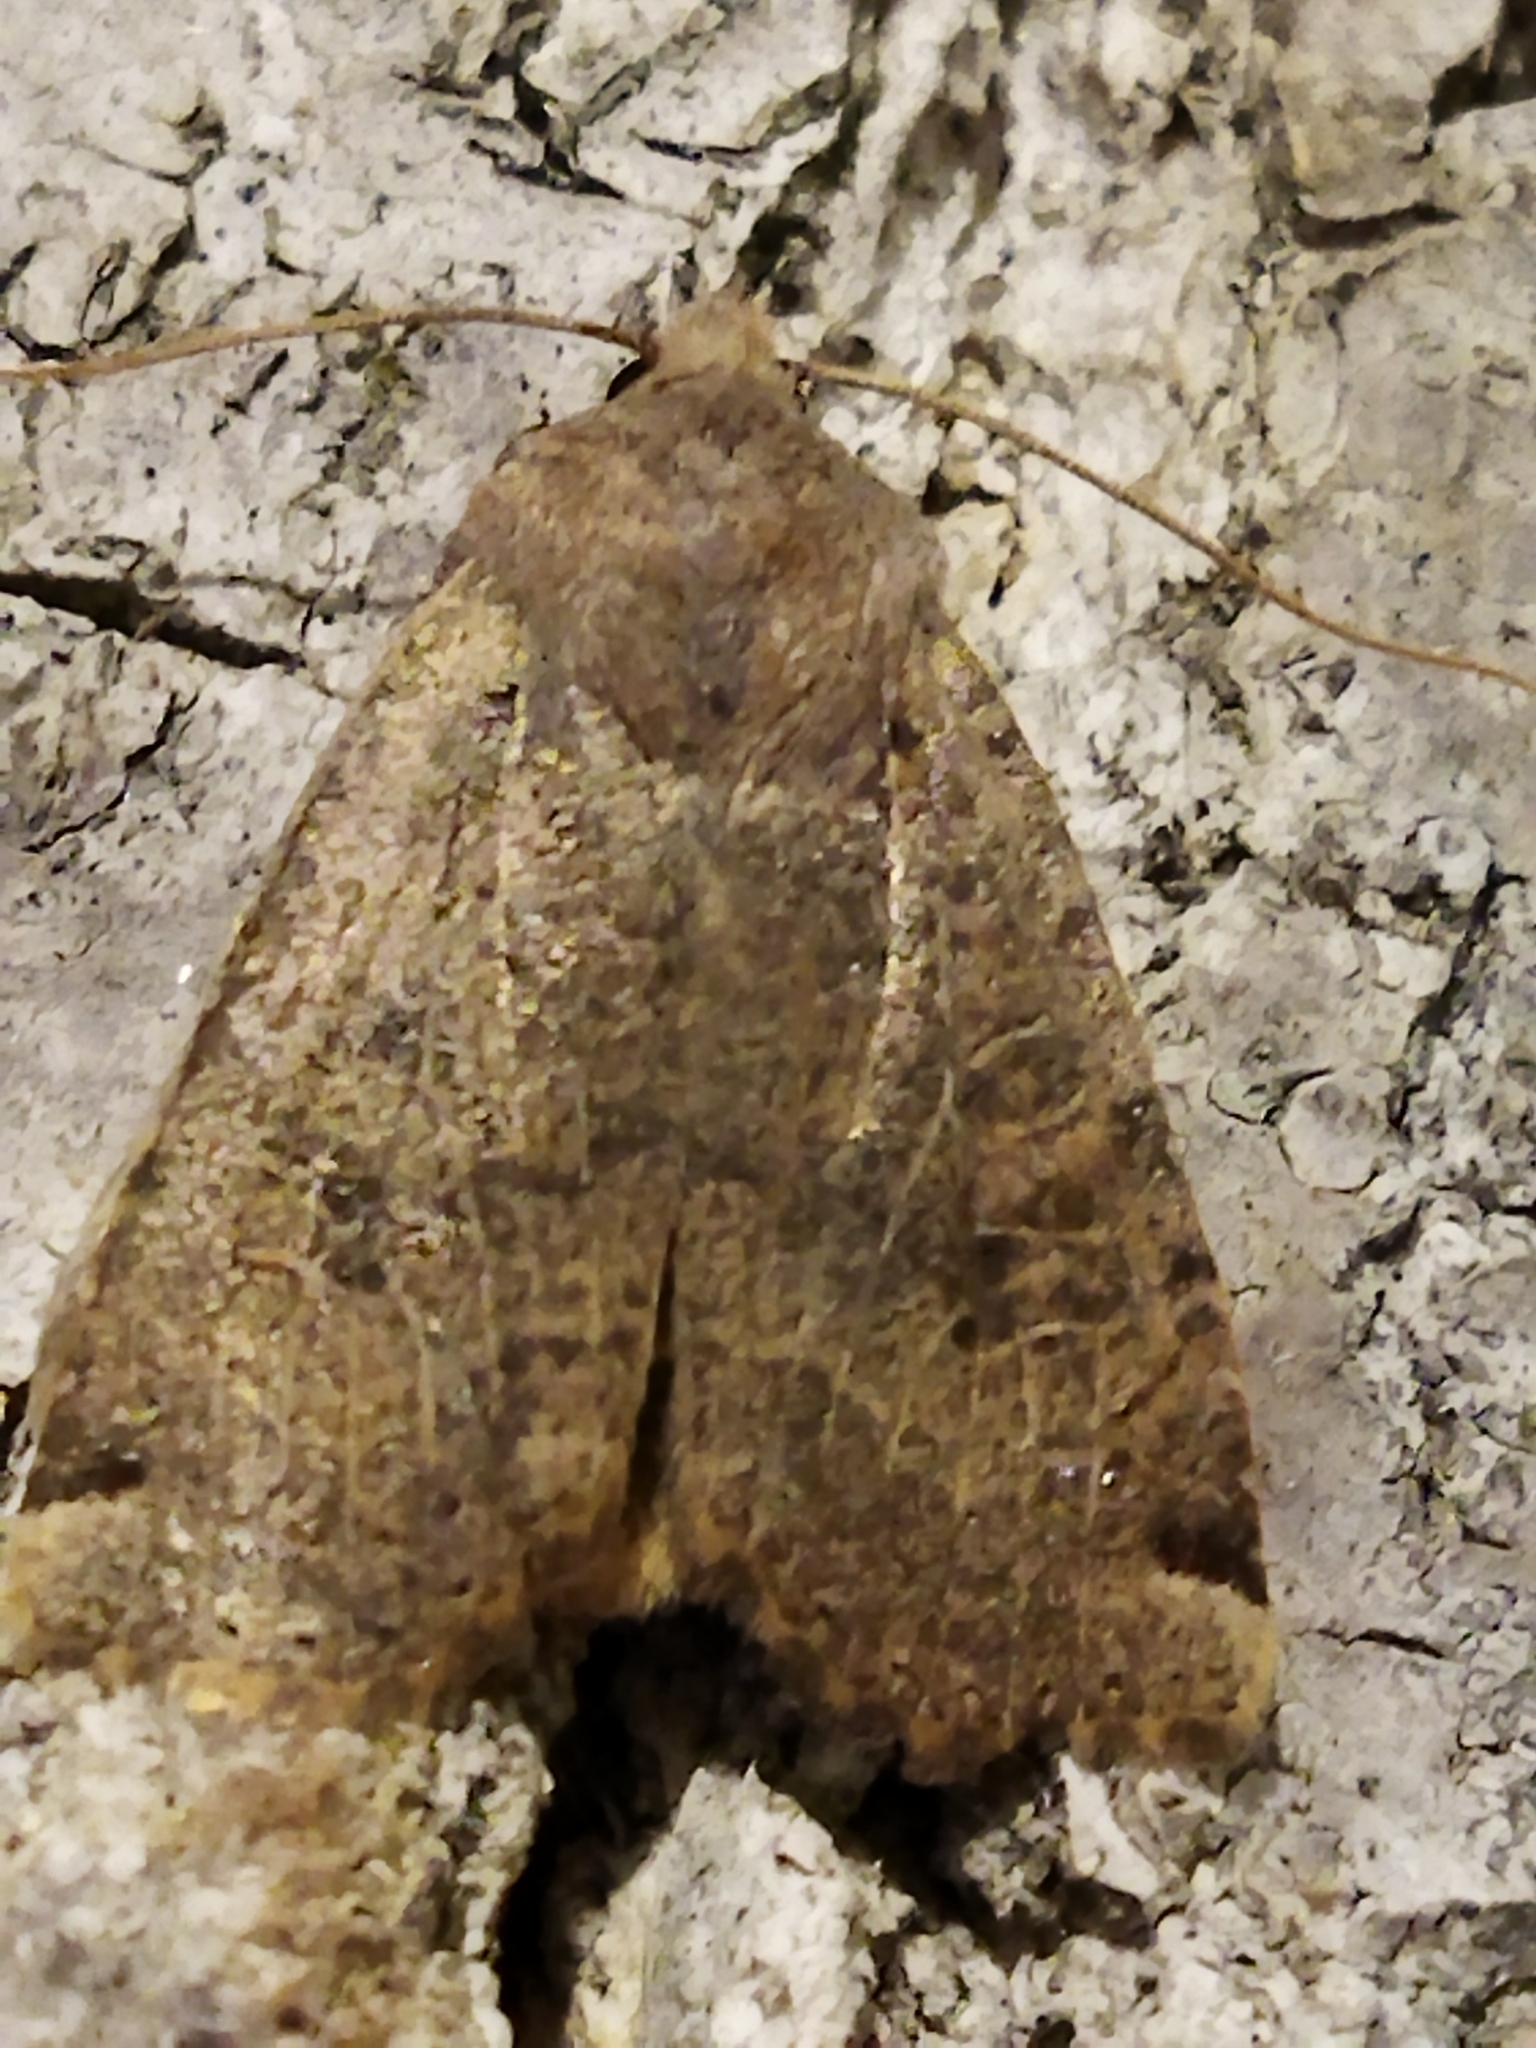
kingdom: Animalia
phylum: Arthropoda
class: Insecta
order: Lepidoptera
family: Noctuidae
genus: Conistra
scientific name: Conistra veronicae
